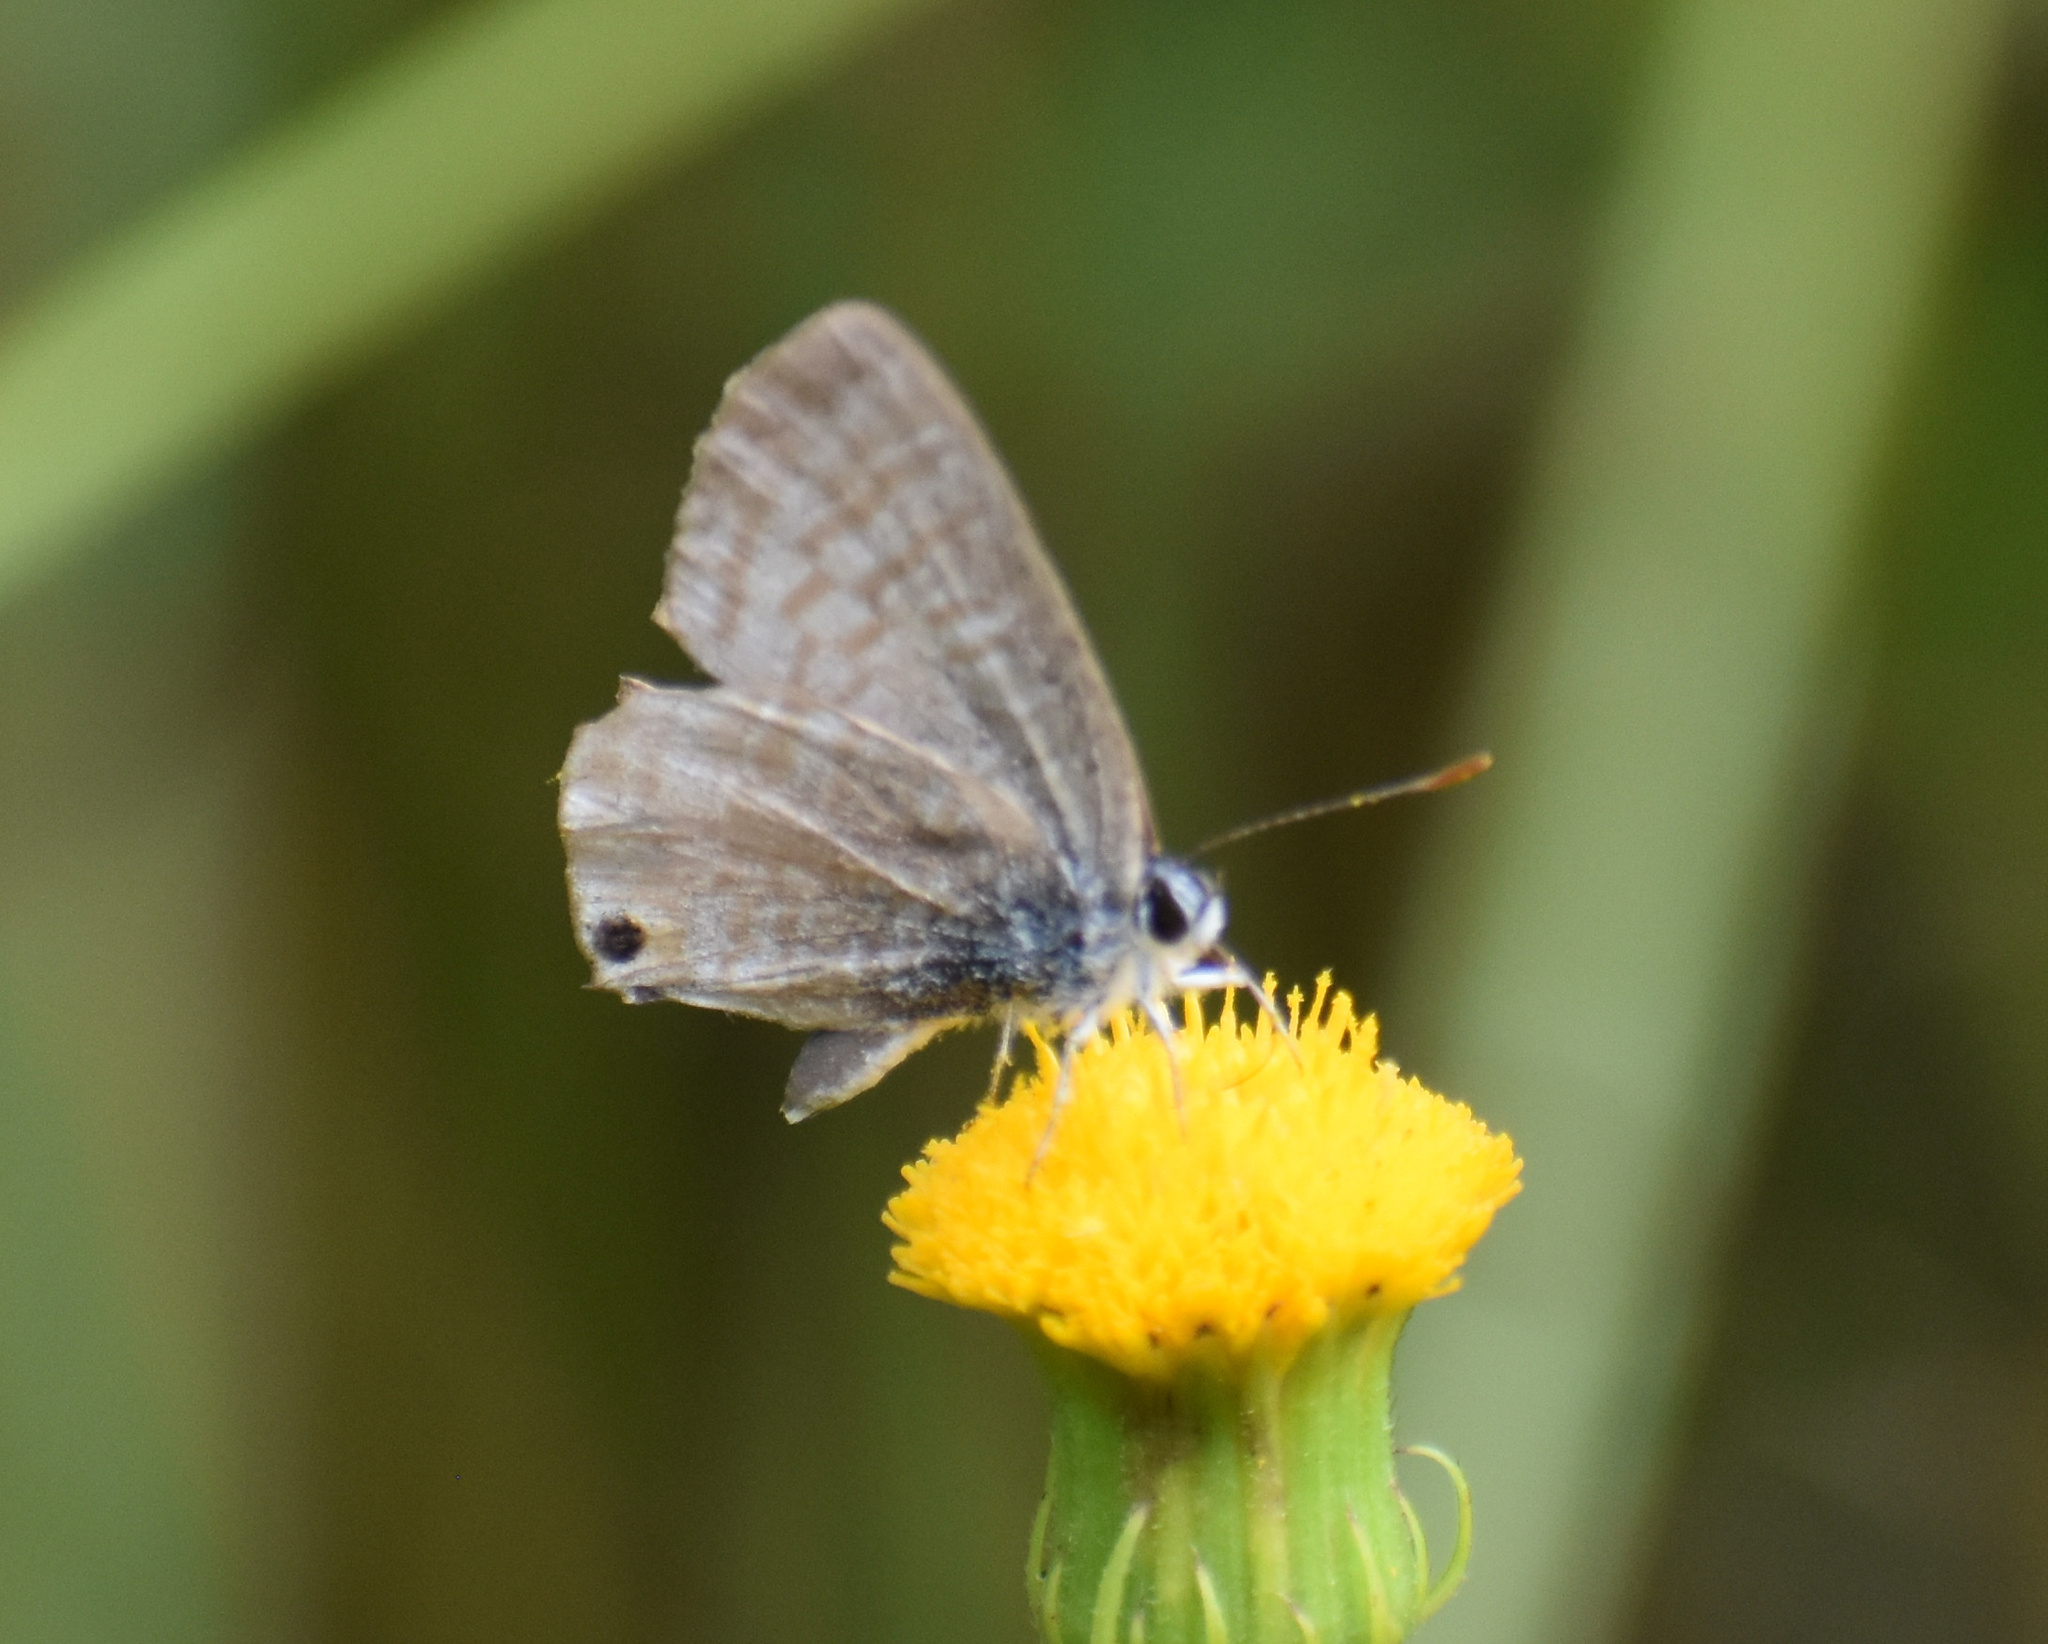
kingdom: Animalia
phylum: Arthropoda
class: Insecta
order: Lepidoptera
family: Lycaenidae
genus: Lampides
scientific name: Lampides boeticus
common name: Long-tailed blue
